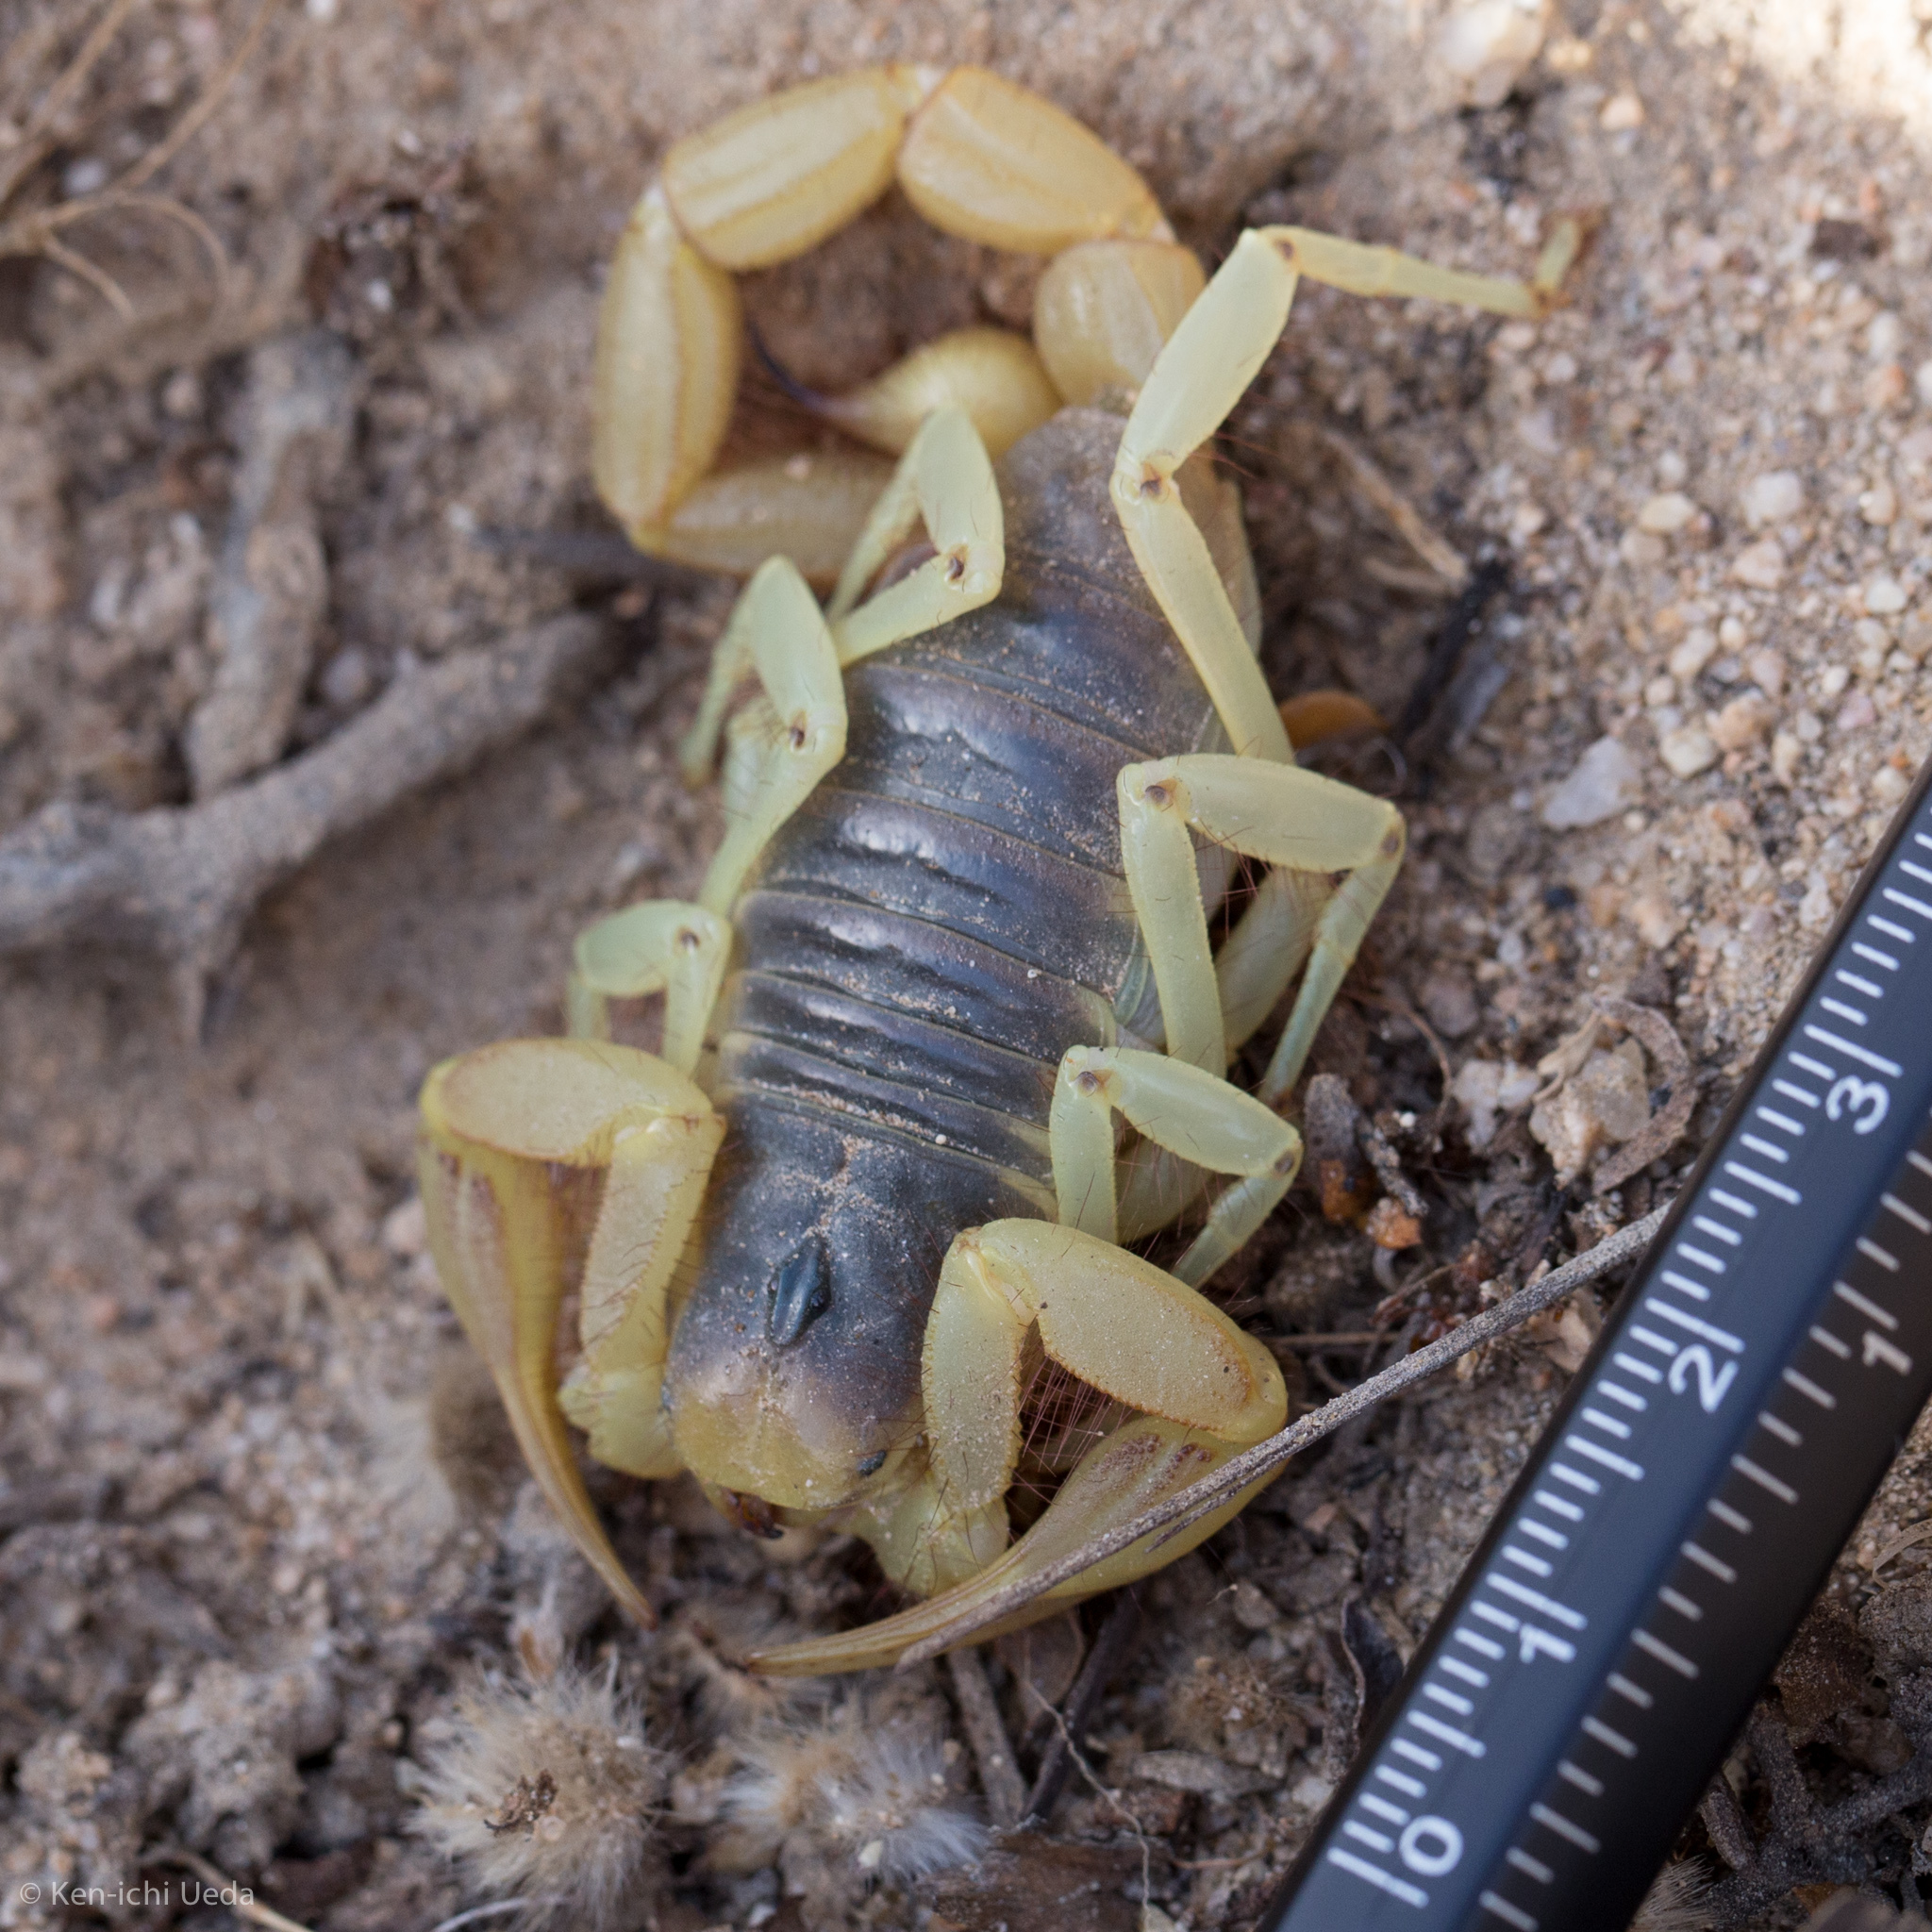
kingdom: Animalia
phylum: Arthropoda
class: Arachnida
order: Scorpiones
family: Hadruridae
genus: Hadrurus
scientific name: Hadrurus arizonensis
